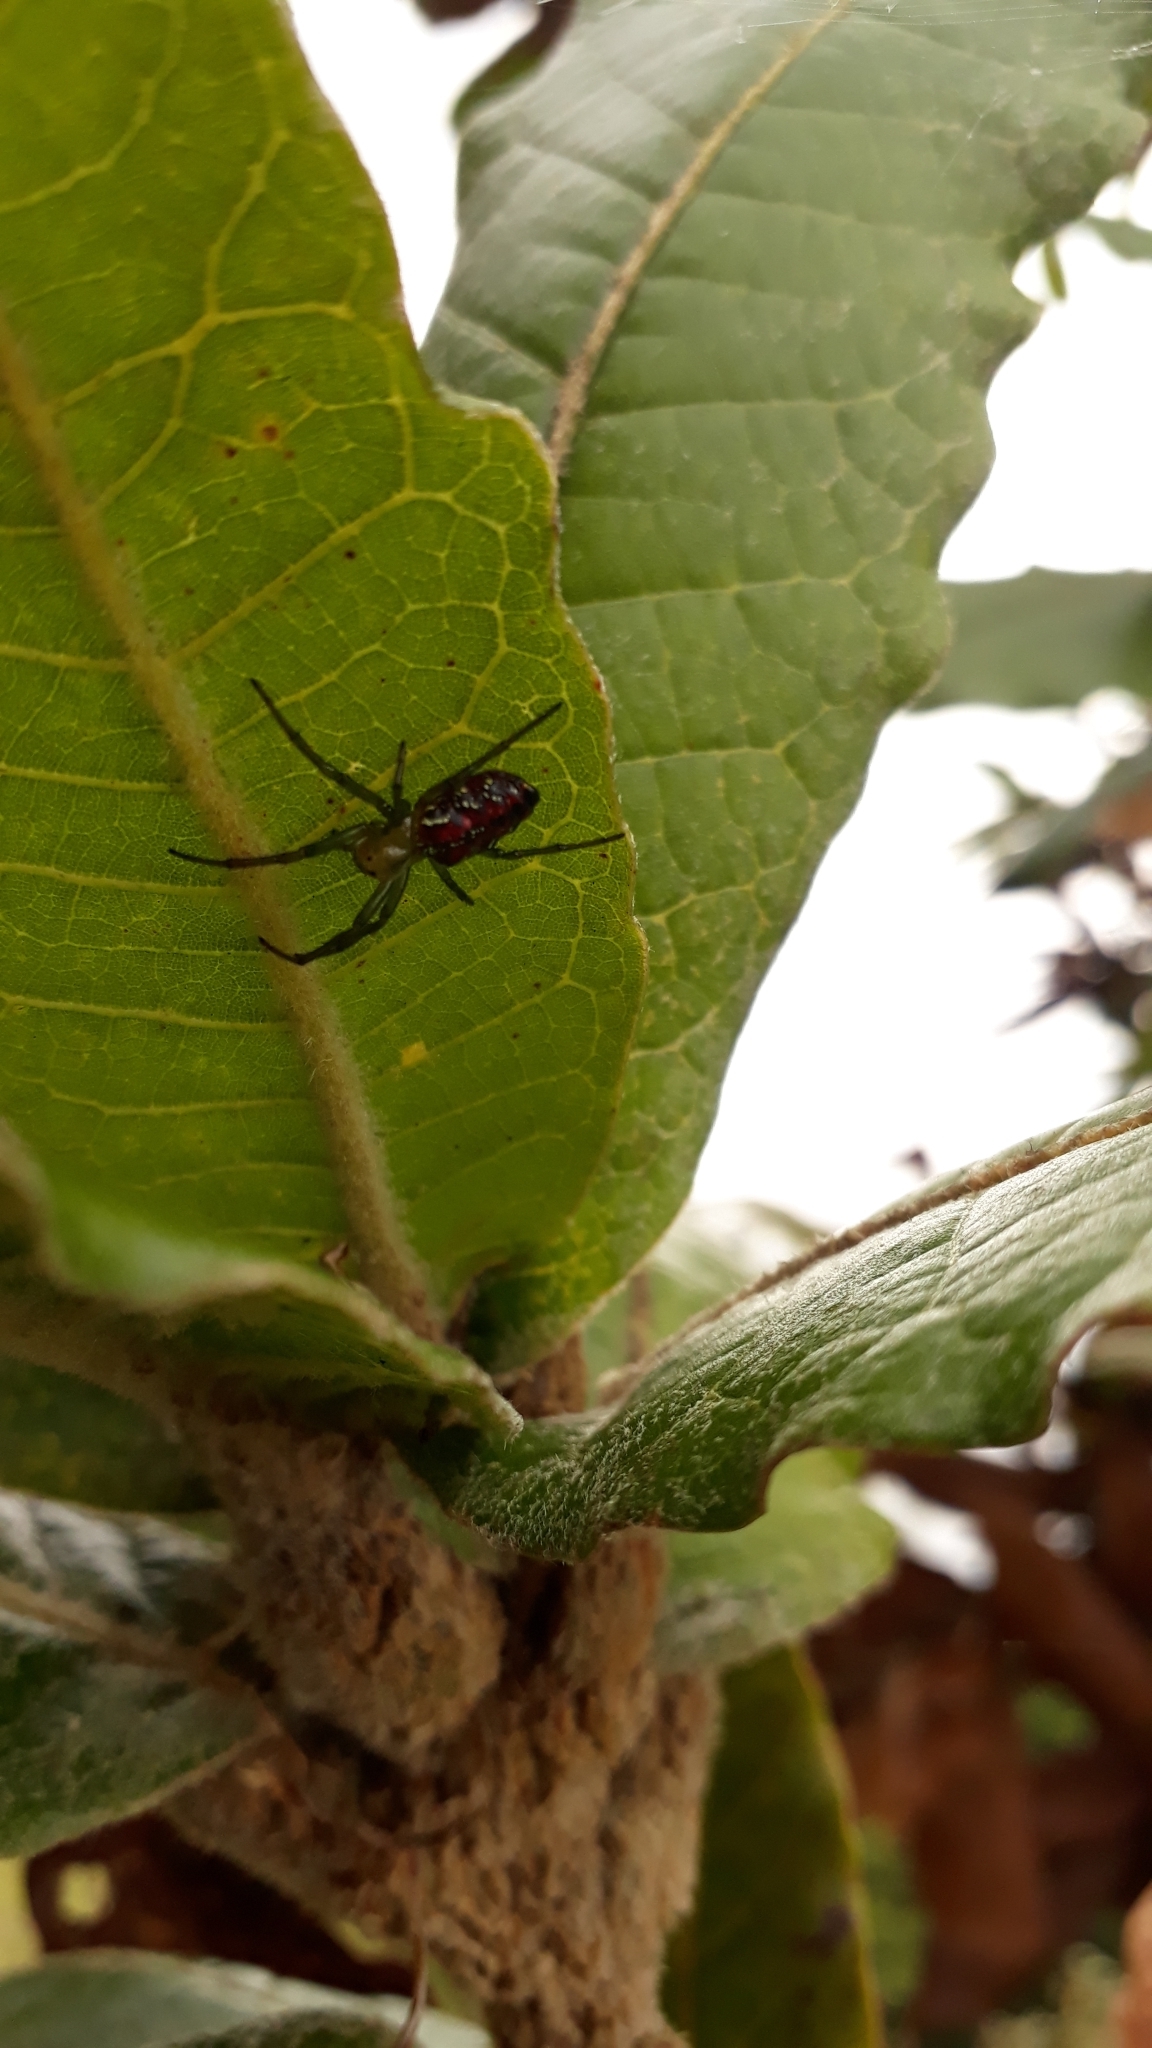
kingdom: Animalia
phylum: Arthropoda
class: Arachnida
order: Araneae
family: Araneidae
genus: Alpaida
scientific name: Alpaida variabilis
